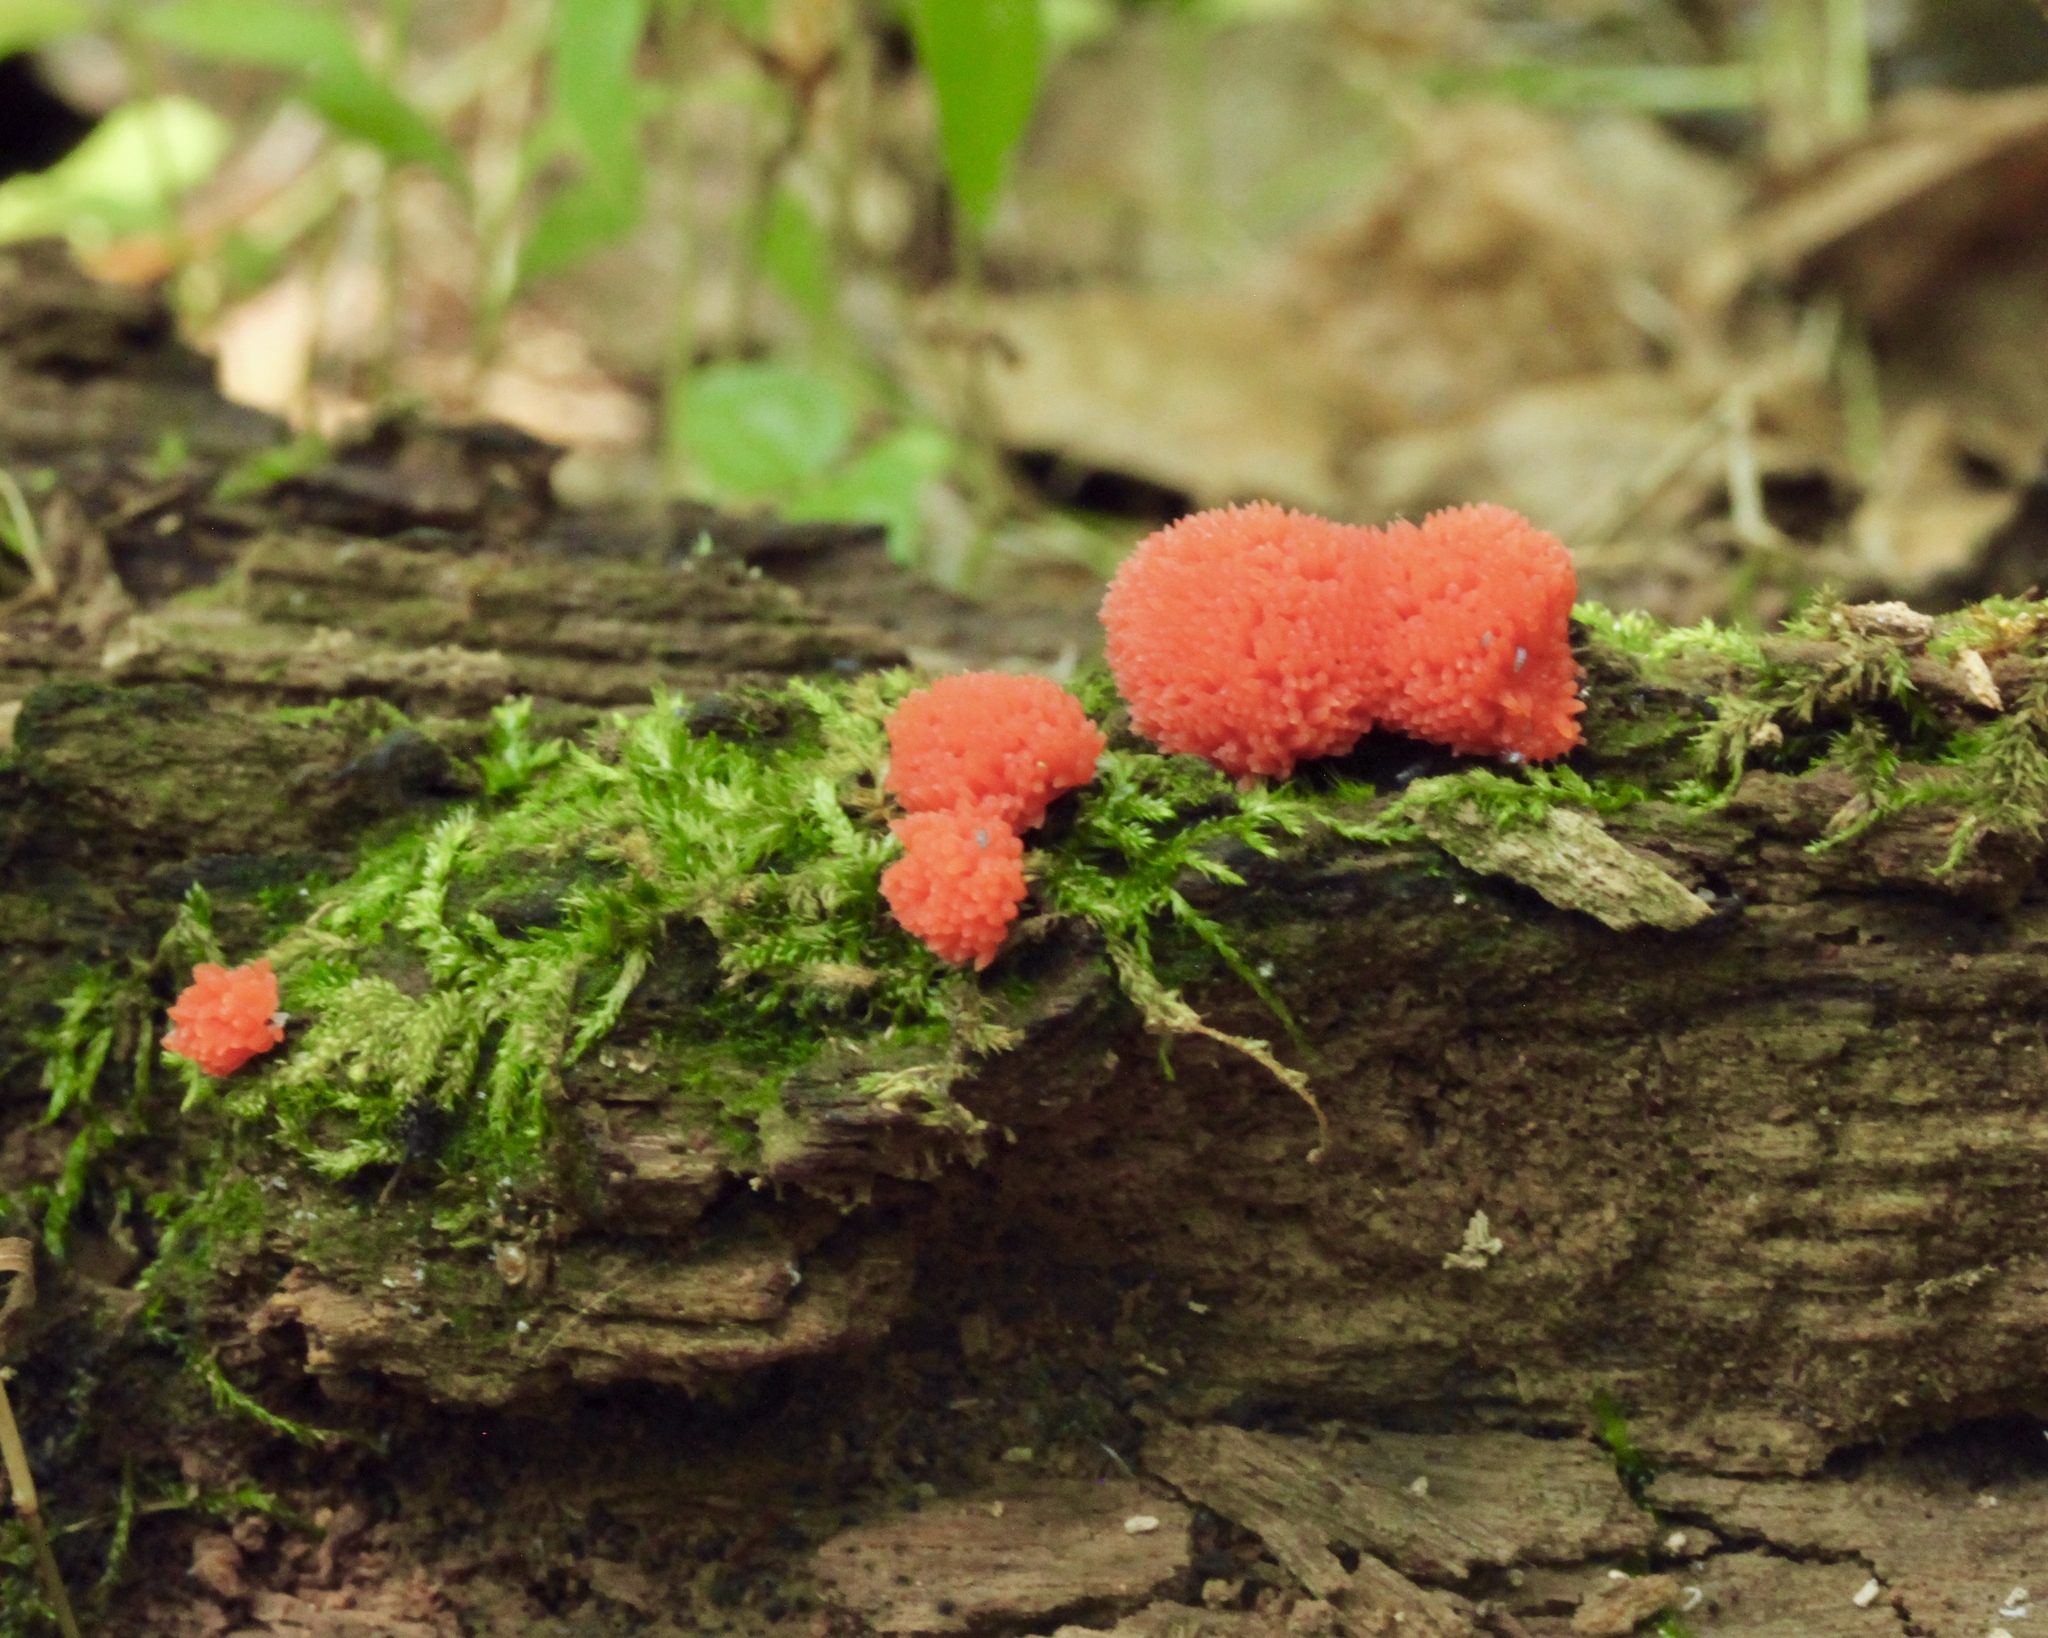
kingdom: Protozoa
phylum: Mycetozoa
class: Myxomycetes
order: Cribrariales
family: Tubiferaceae
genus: Tubifera
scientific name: Tubifera ferruginosa
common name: Red raspberry slime mold
